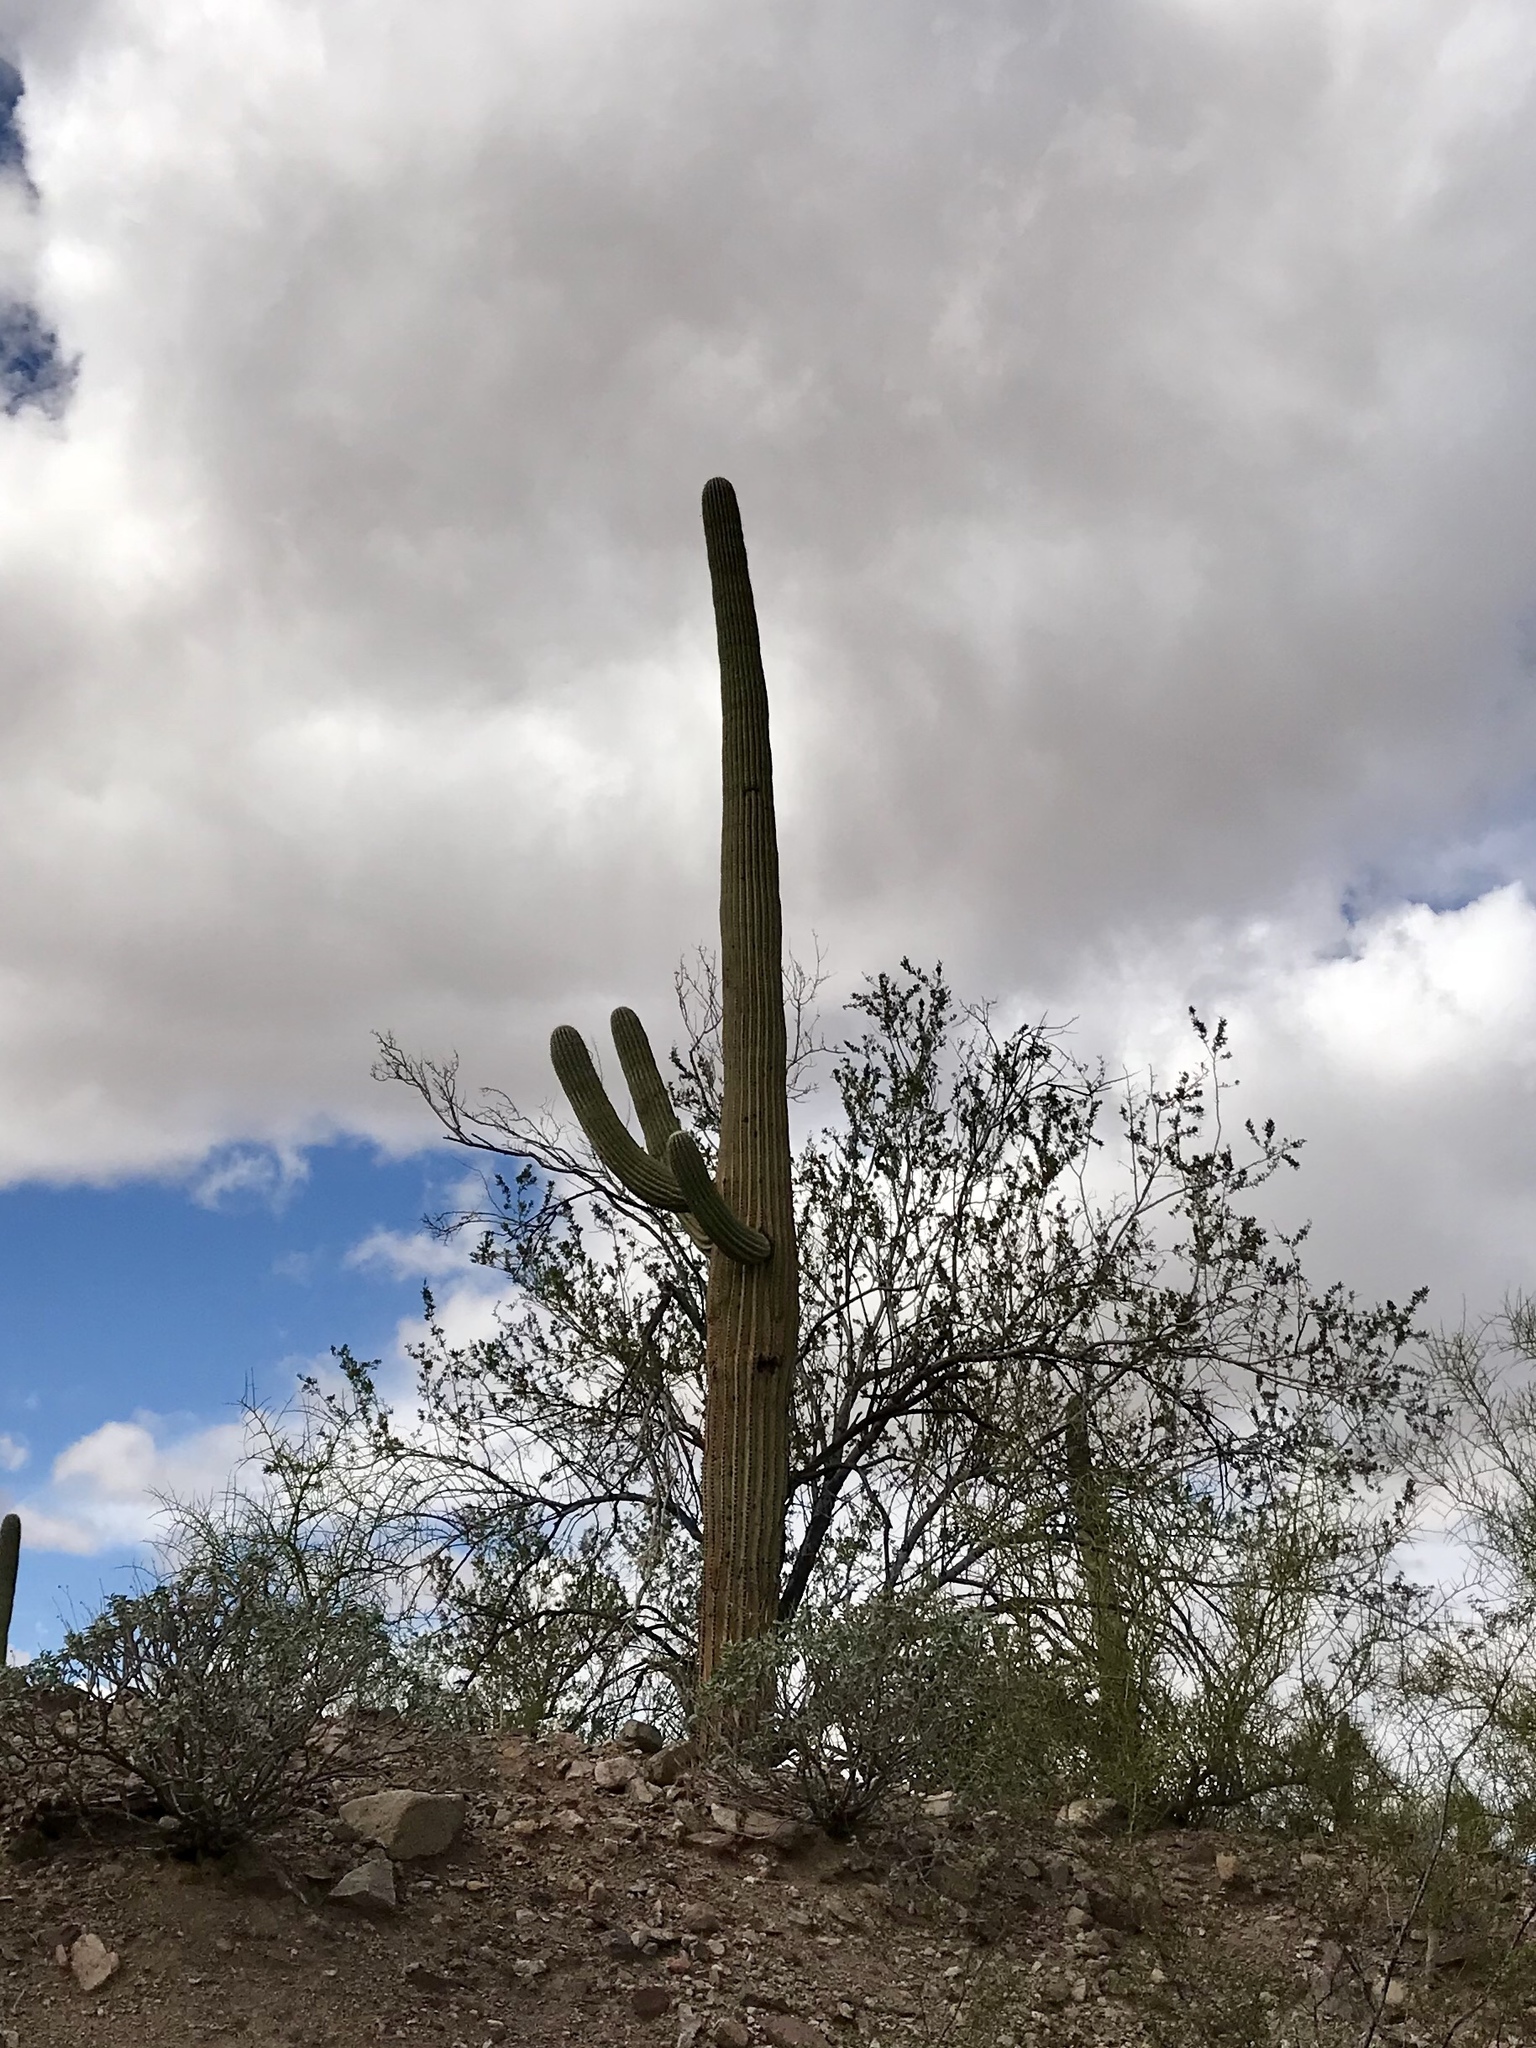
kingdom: Plantae
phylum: Tracheophyta
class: Magnoliopsida
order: Caryophyllales
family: Cactaceae
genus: Carnegiea
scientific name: Carnegiea gigantea
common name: Saguaro
